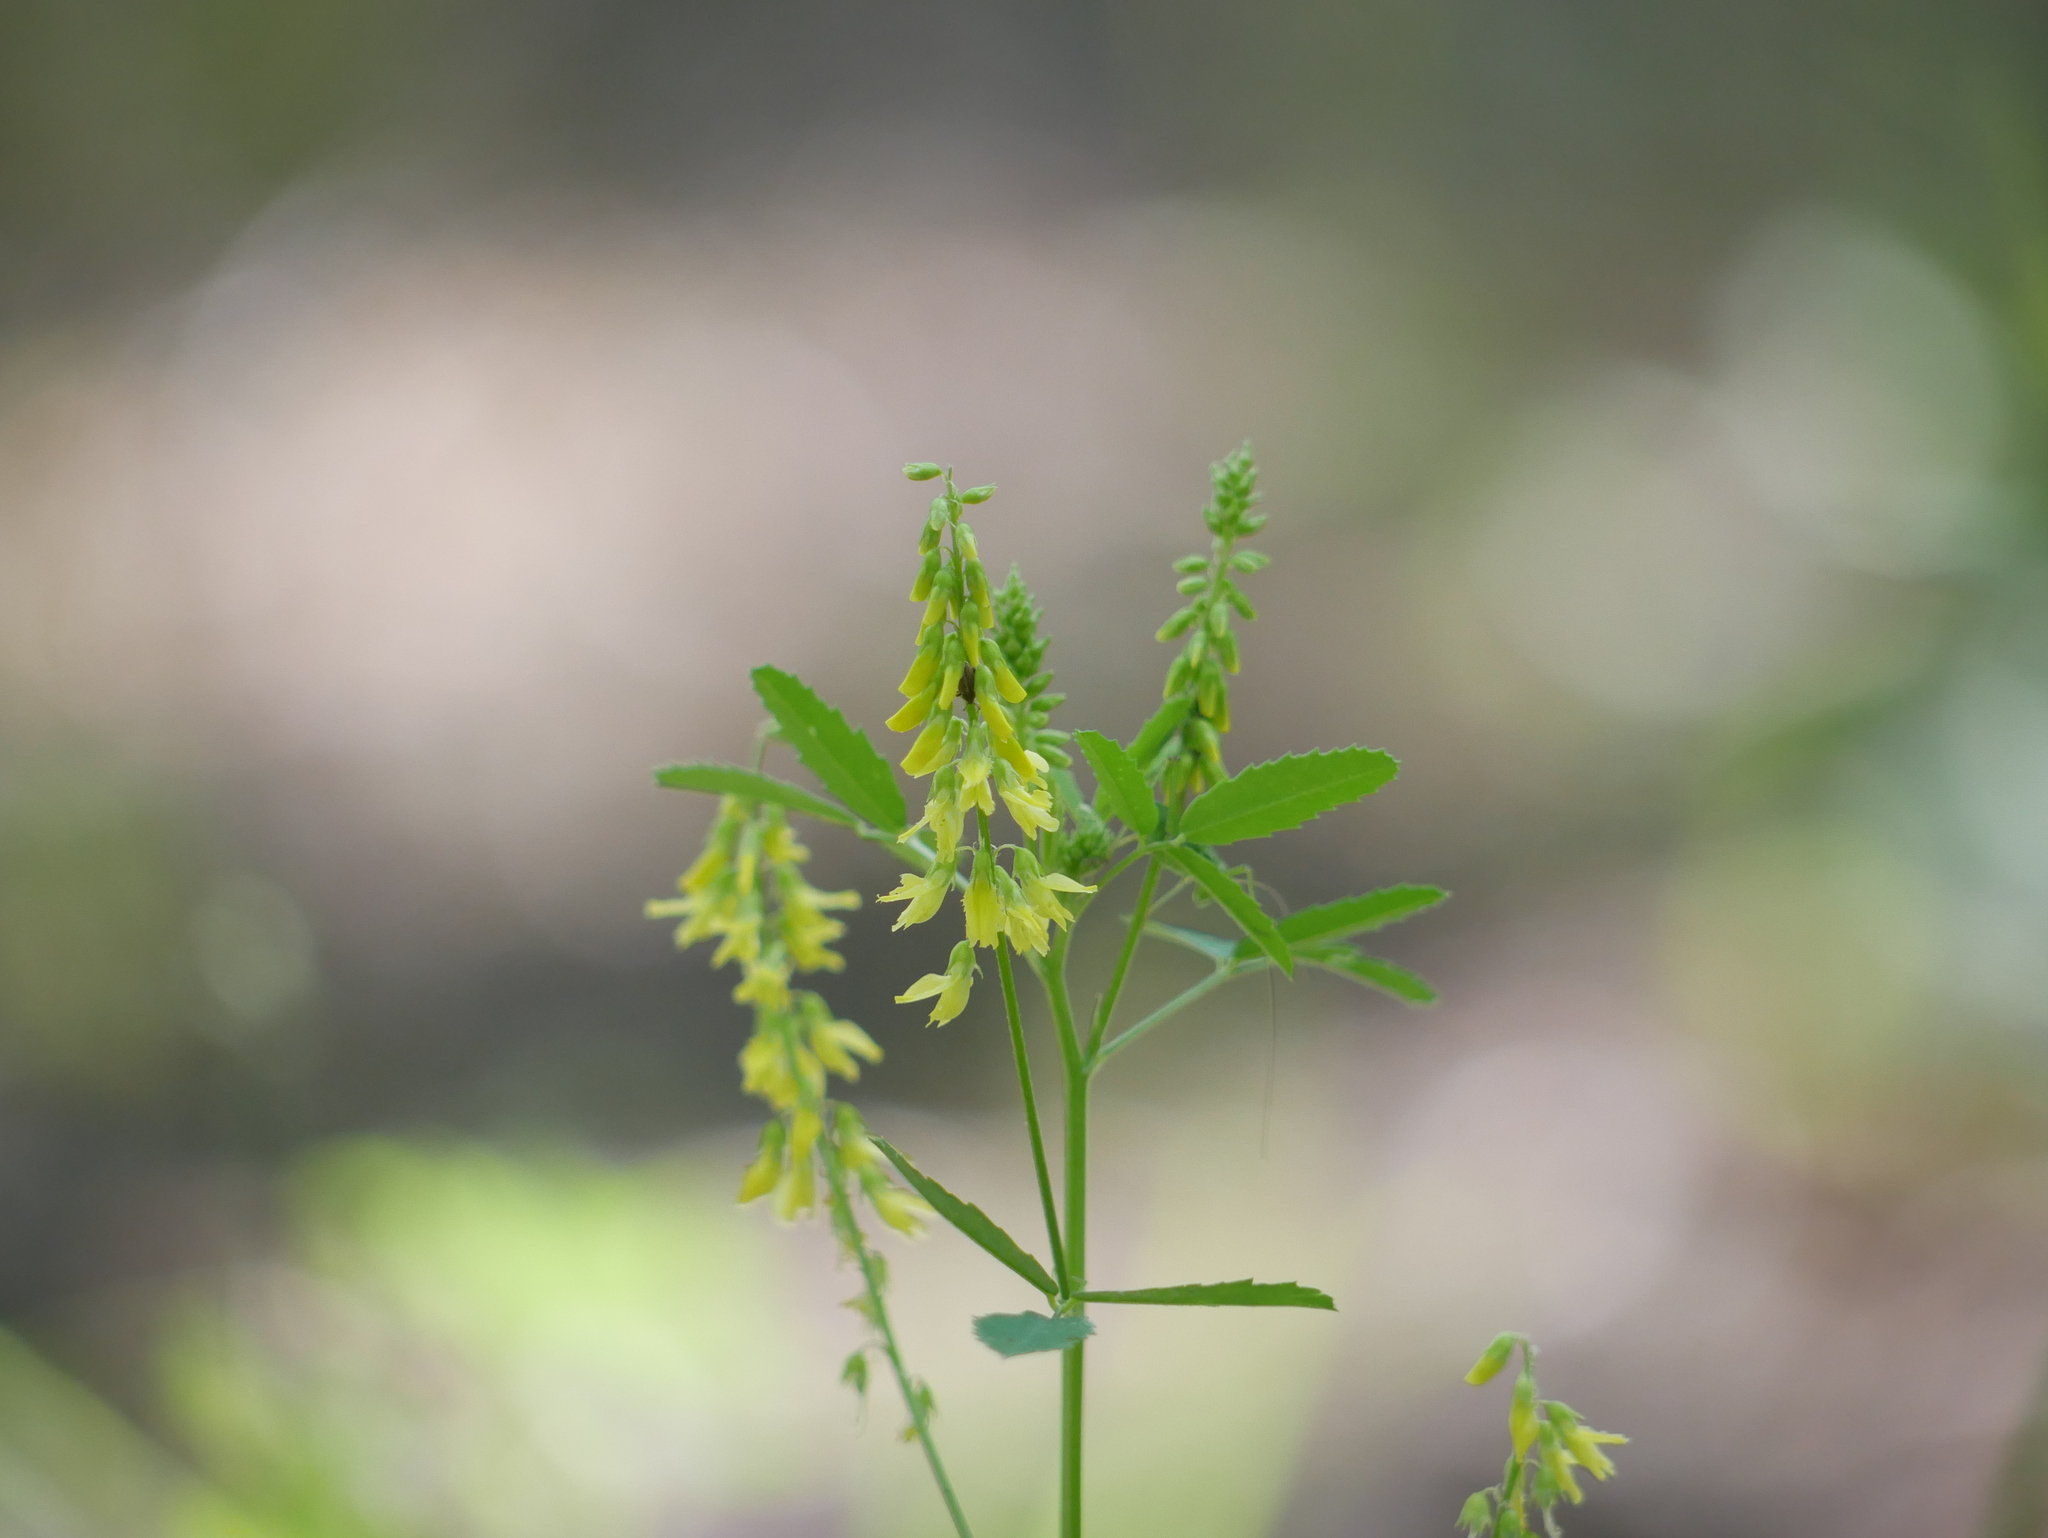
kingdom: Plantae
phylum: Tracheophyta
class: Magnoliopsida
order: Fabales
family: Fabaceae
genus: Melilotus
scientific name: Melilotus officinalis
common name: Sweetclover
